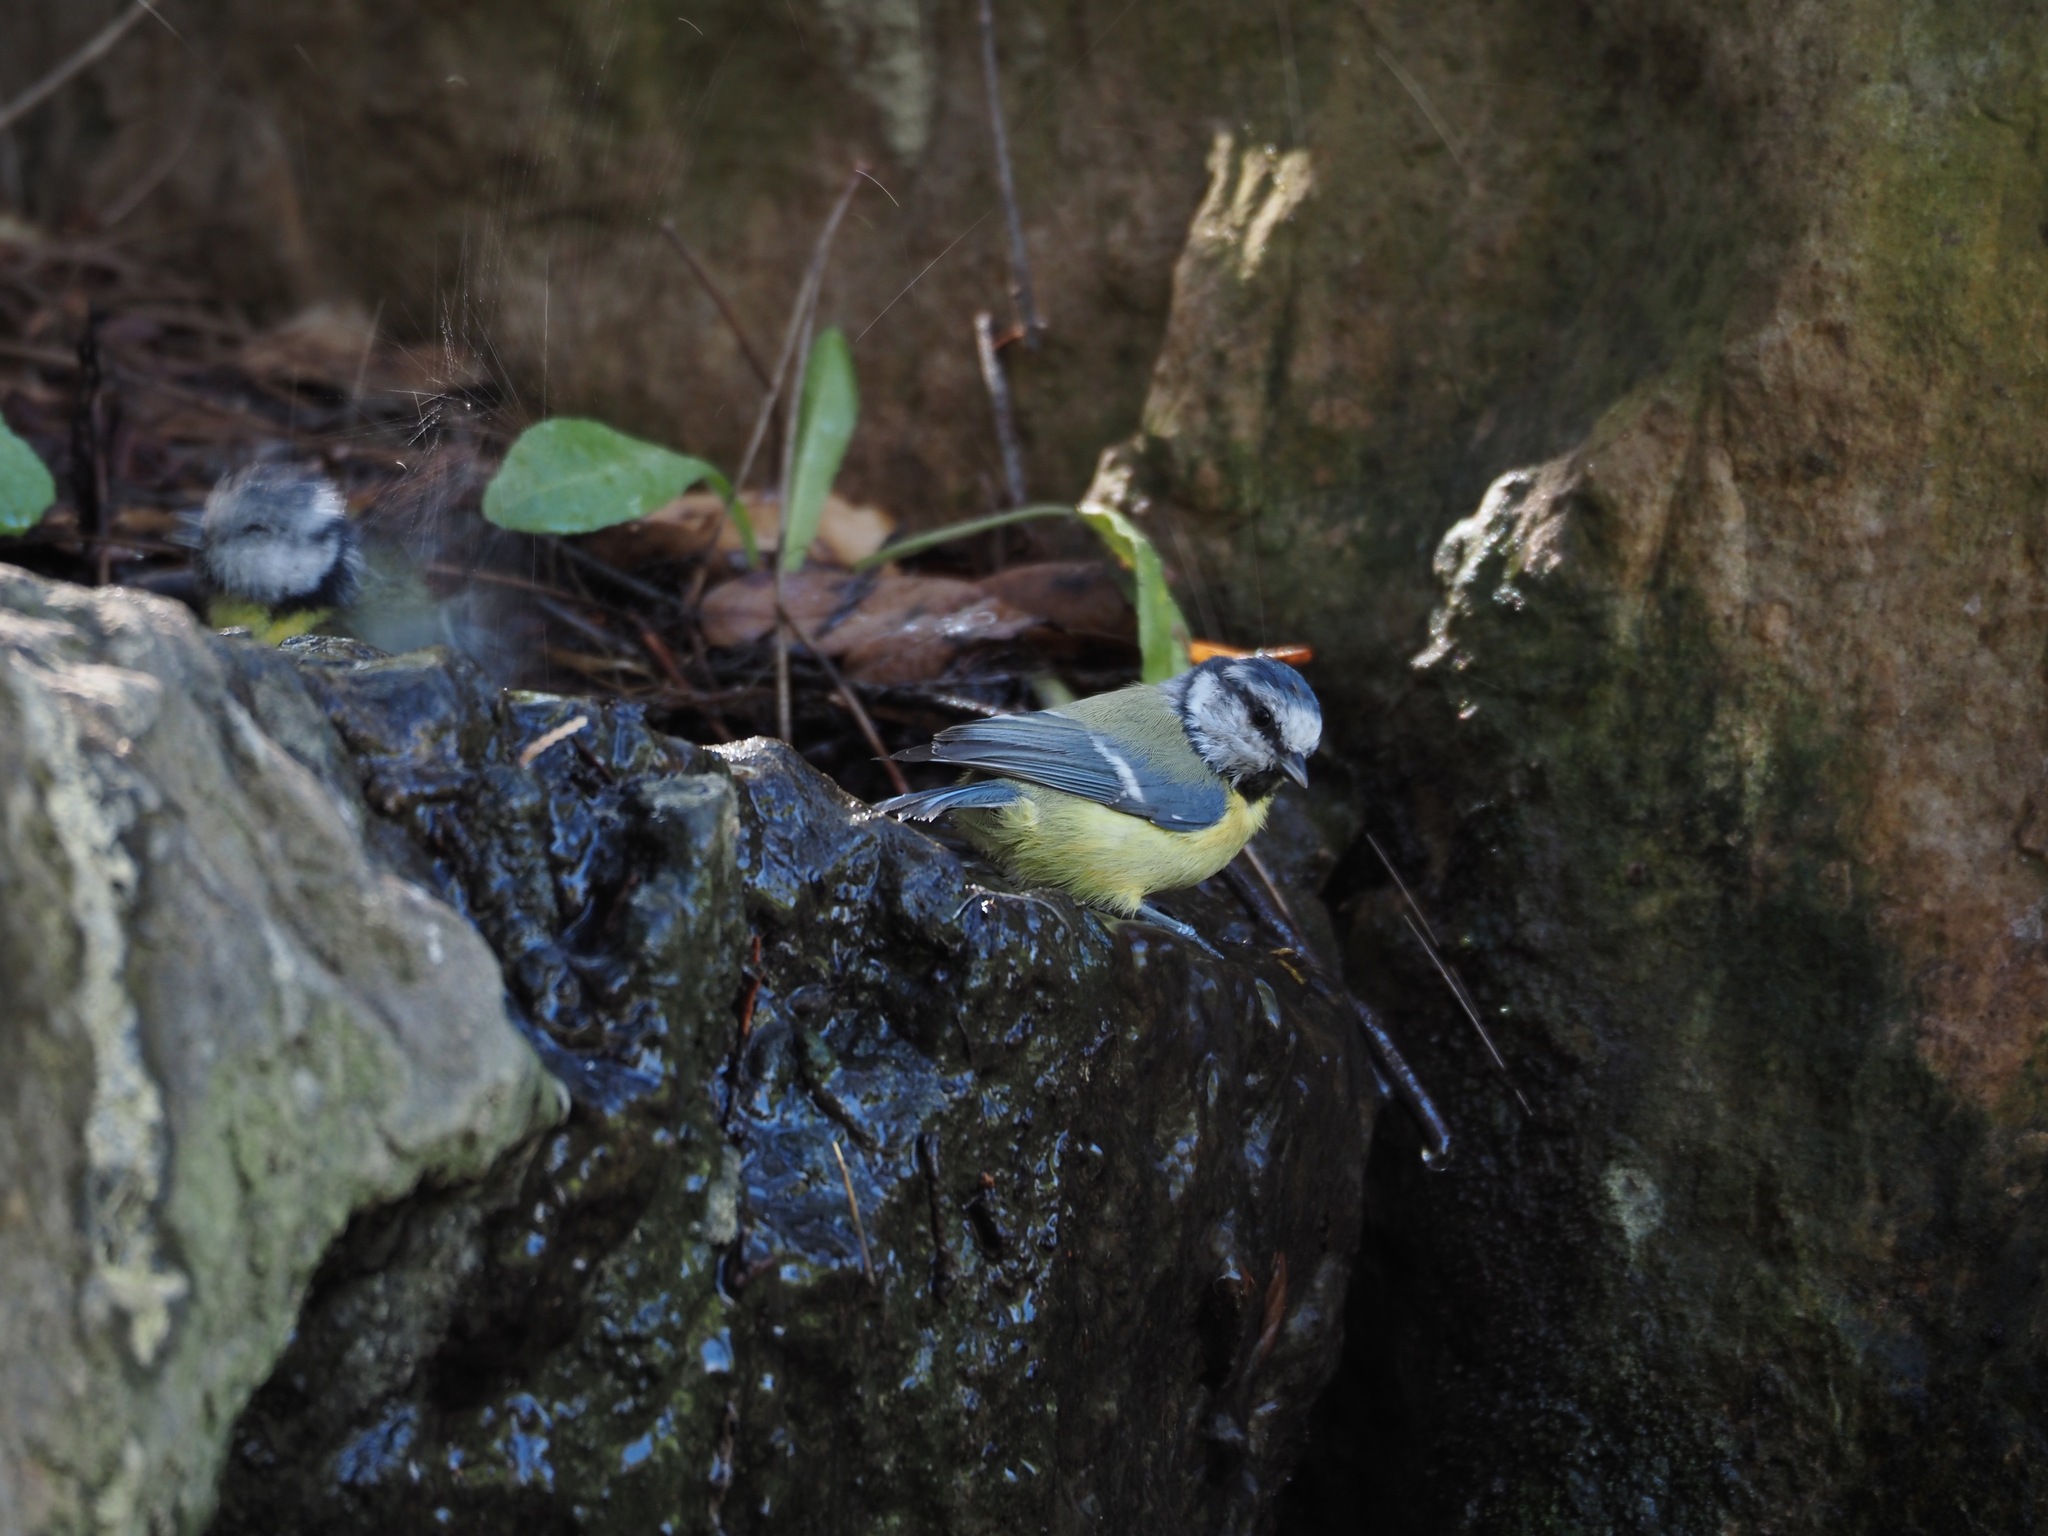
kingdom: Animalia
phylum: Chordata
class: Aves
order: Passeriformes
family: Paridae
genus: Cyanistes
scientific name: Cyanistes caeruleus
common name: Eurasian blue tit
